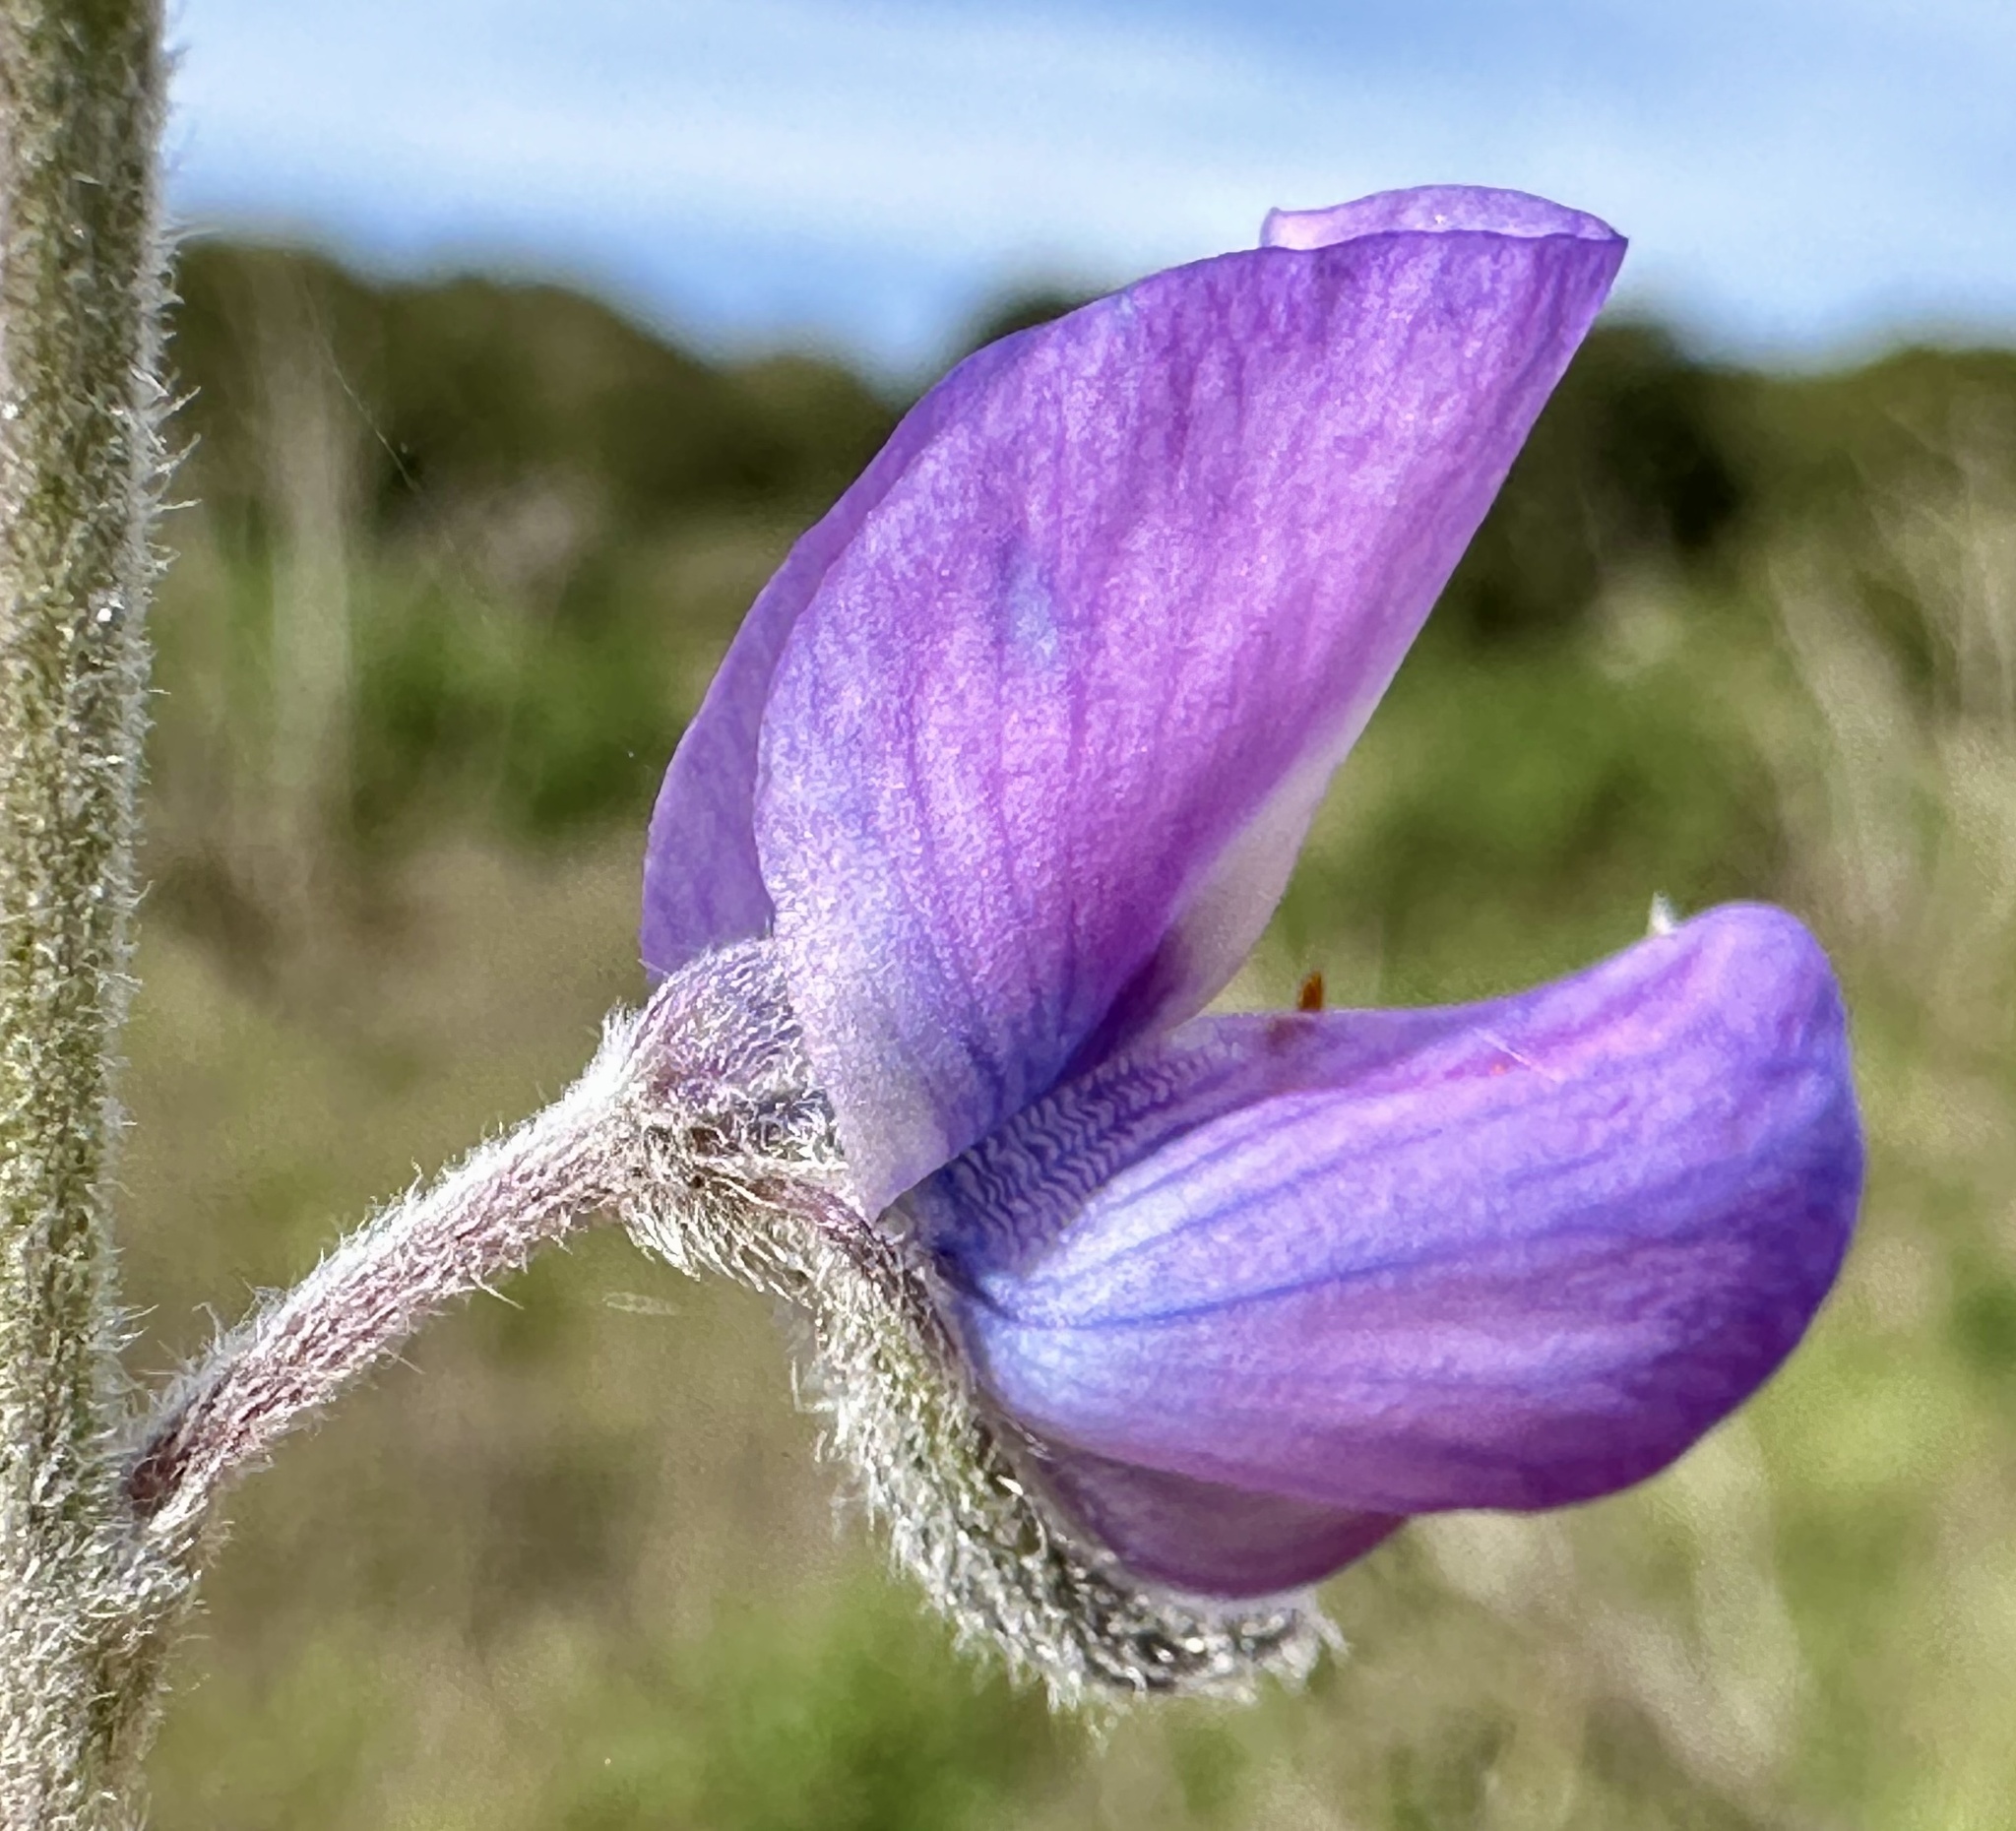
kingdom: Plantae
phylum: Tracheophyta
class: Magnoliopsida
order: Fabales
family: Fabaceae
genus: Lupinus
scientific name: Lupinus chamissonis
